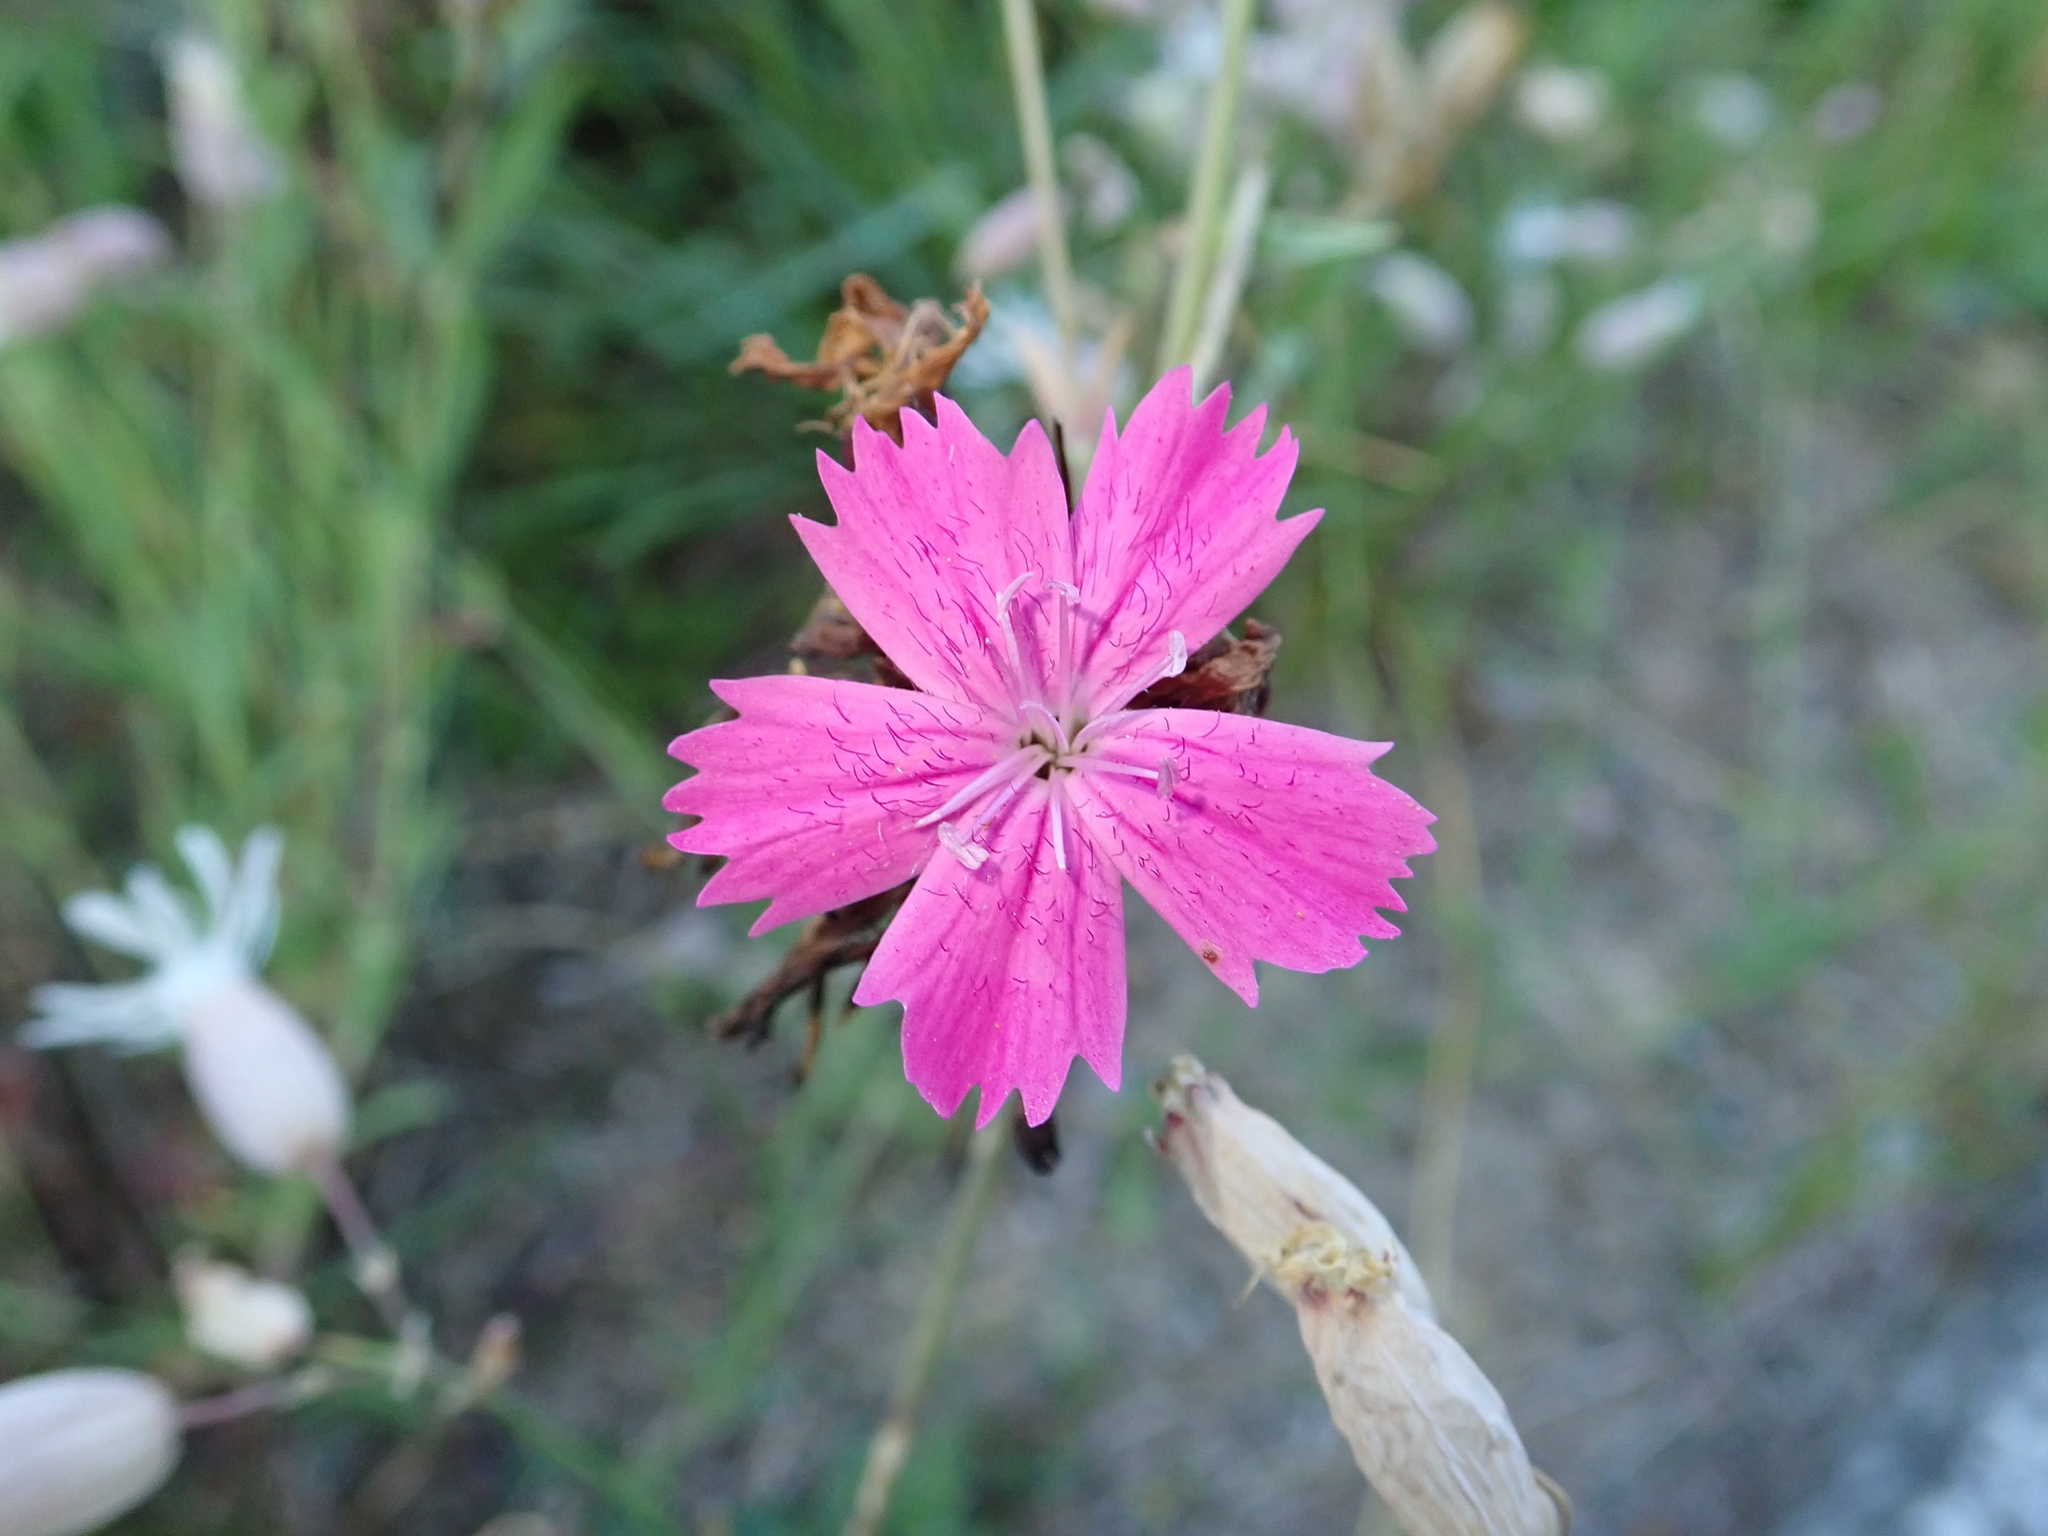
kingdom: Plantae
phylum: Tracheophyta
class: Magnoliopsida
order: Caryophyllales
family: Caryophyllaceae
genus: Dianthus
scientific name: Dianthus carthusianorum
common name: Carthusian pink
